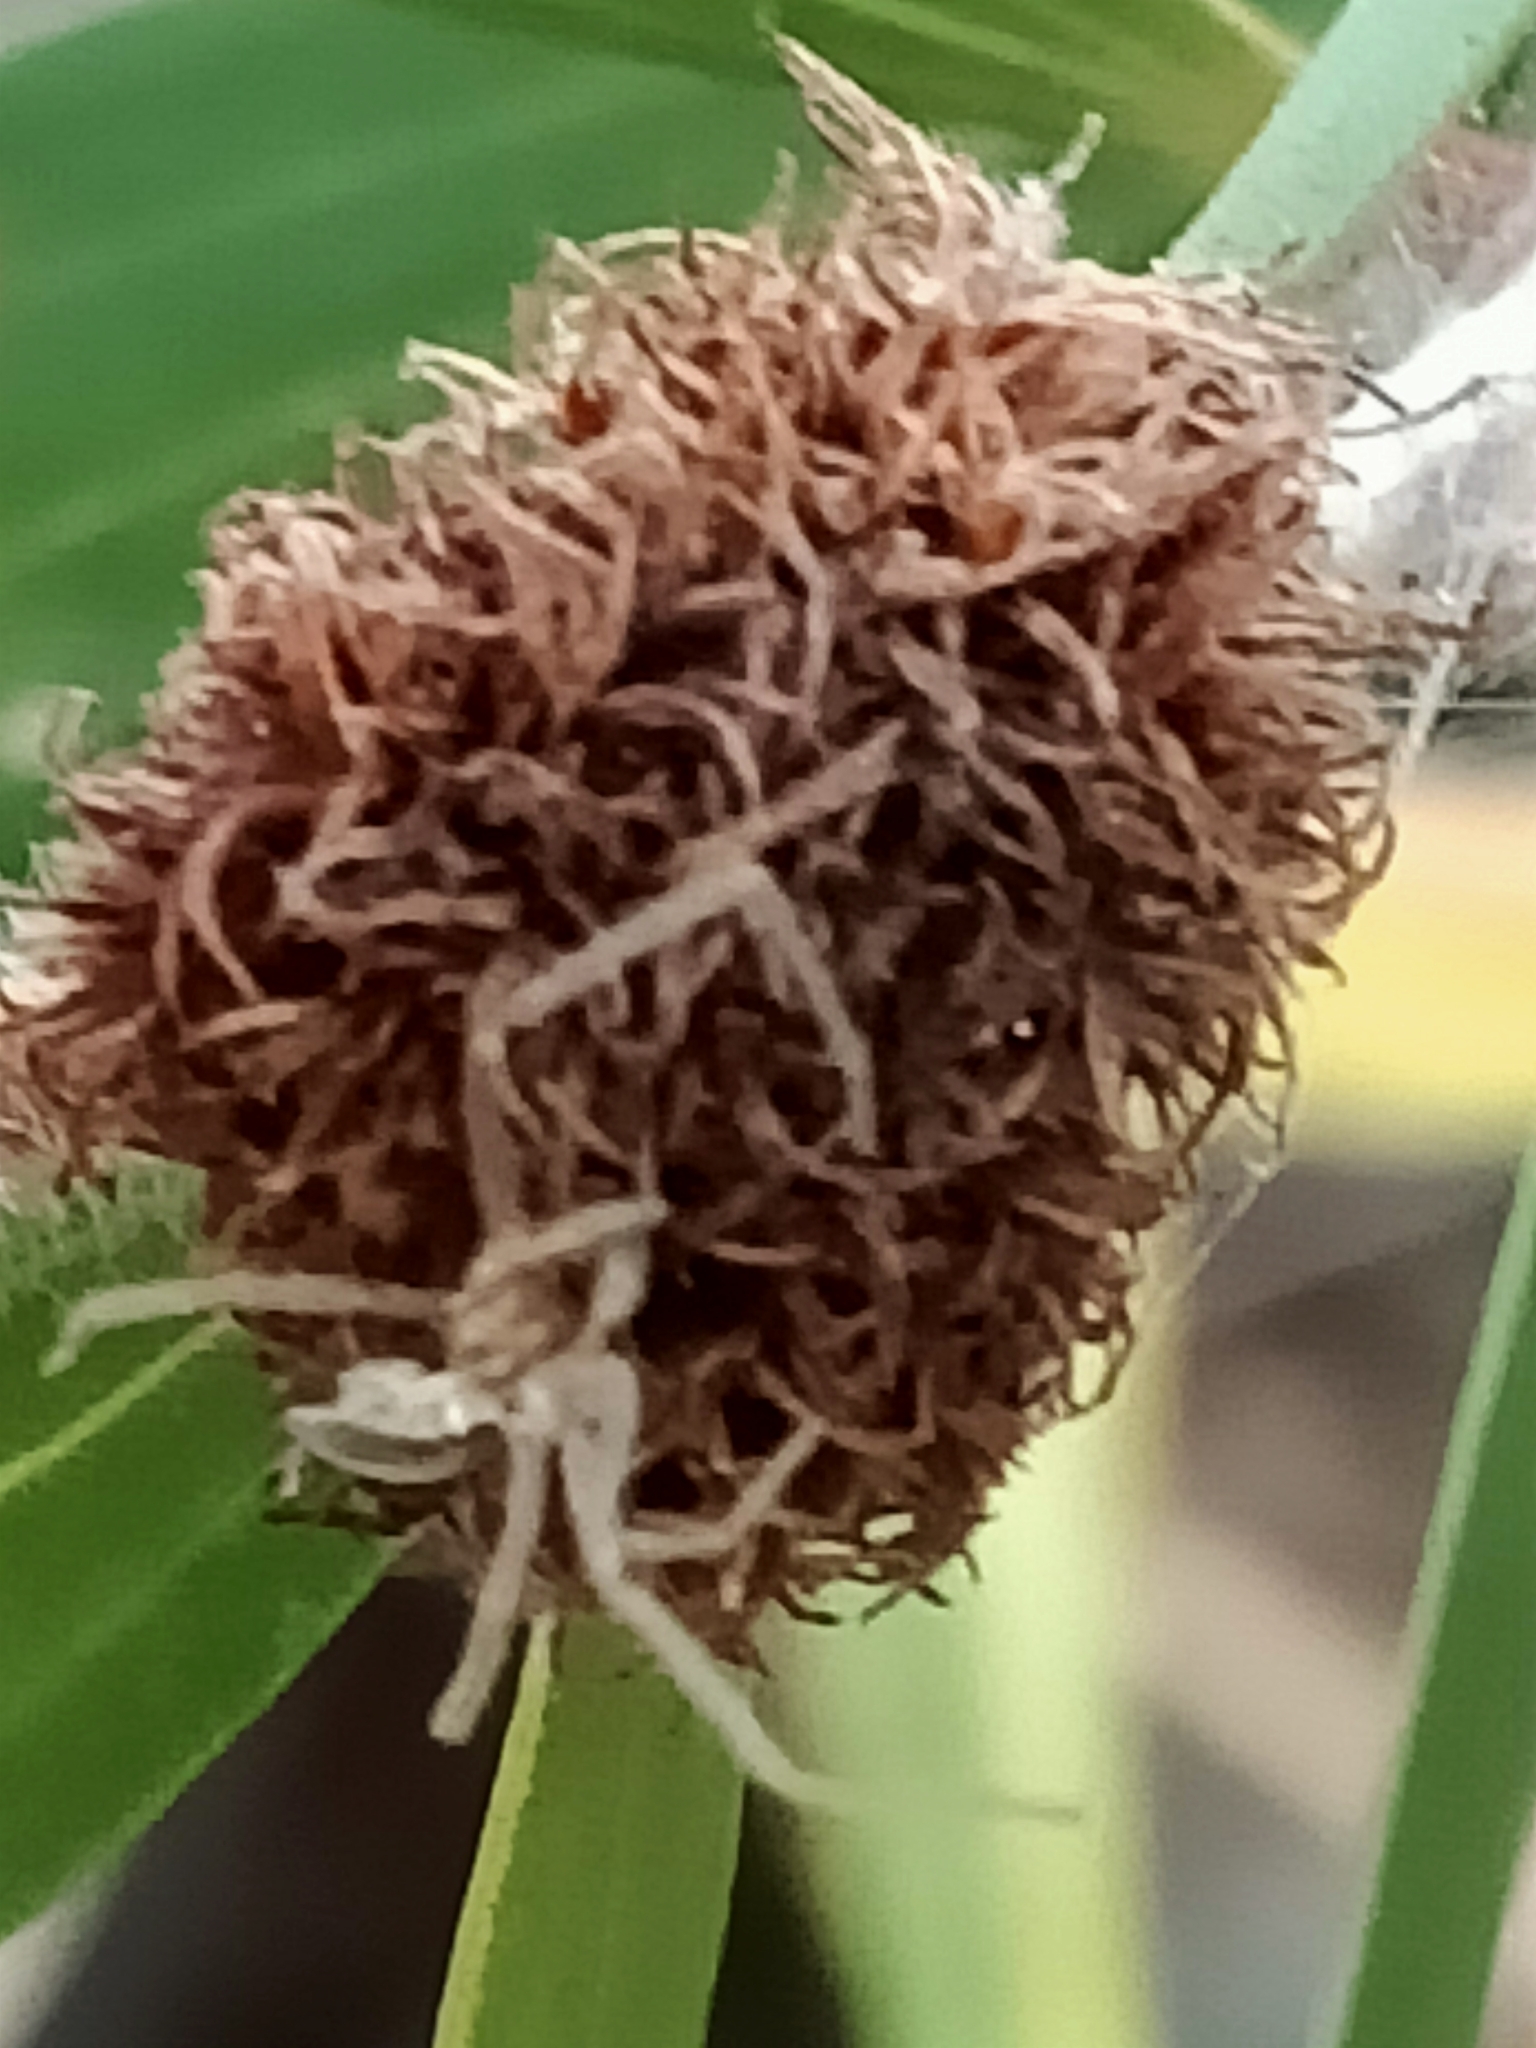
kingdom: Animalia
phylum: Arthropoda
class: Insecta
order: Hemiptera
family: Beesoniidae
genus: Beesonia
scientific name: Beesonia ferrugineus
